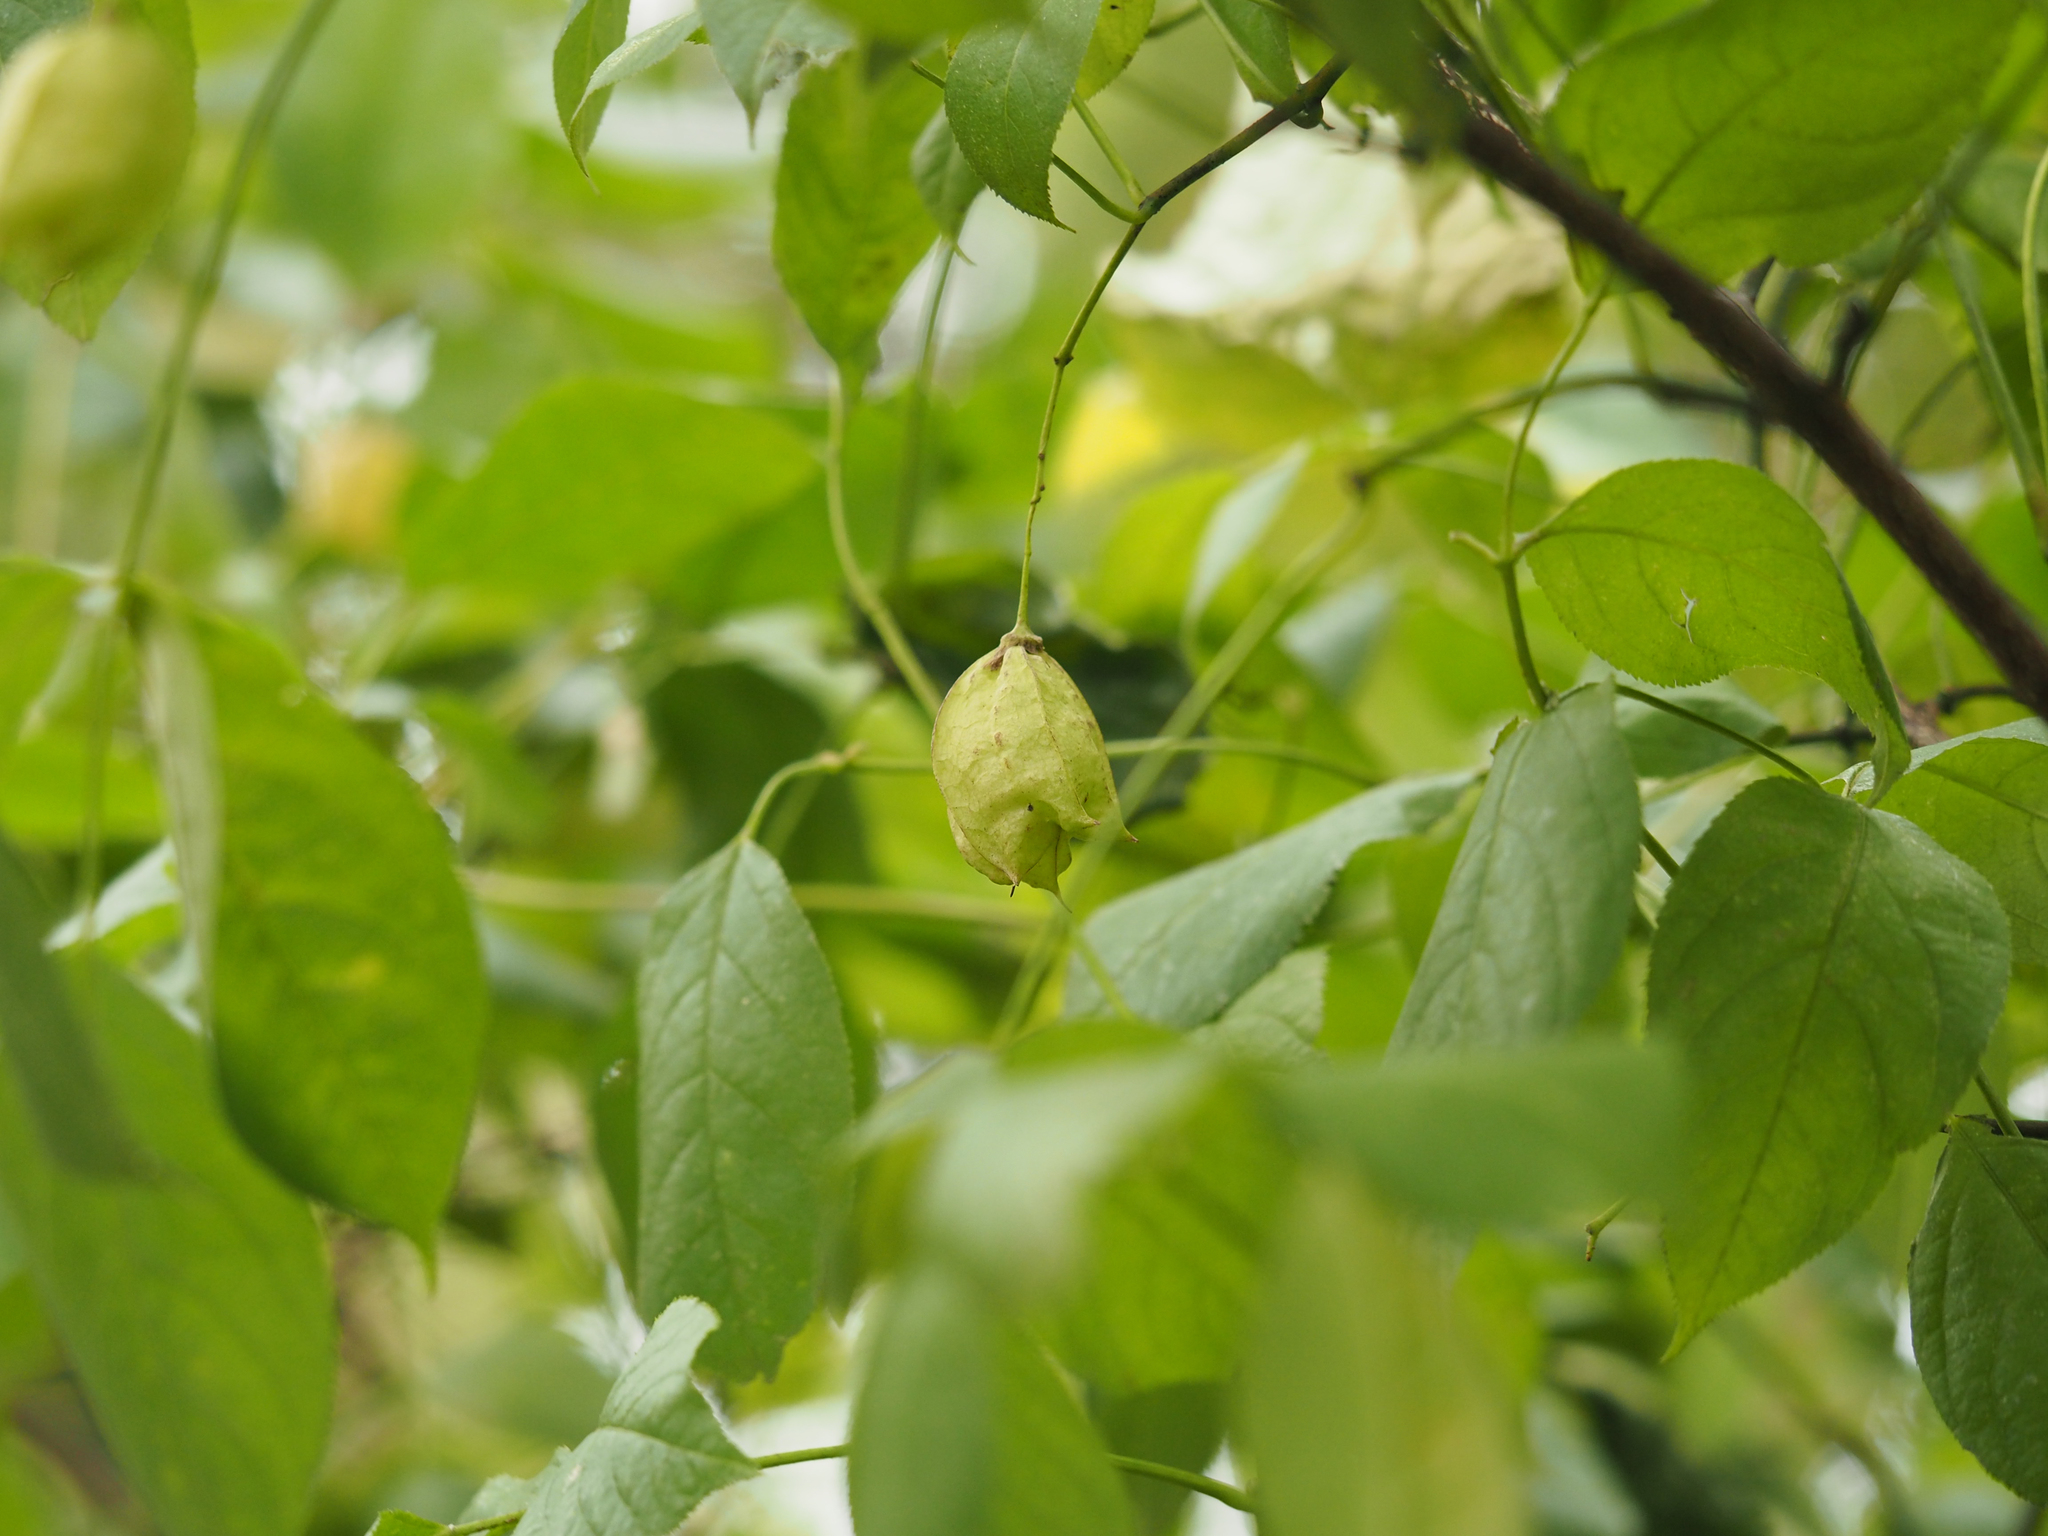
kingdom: Plantae
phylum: Tracheophyta
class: Magnoliopsida
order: Crossosomatales
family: Staphyleaceae
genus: Staphylea
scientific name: Staphylea trifolia
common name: American bladdernut
